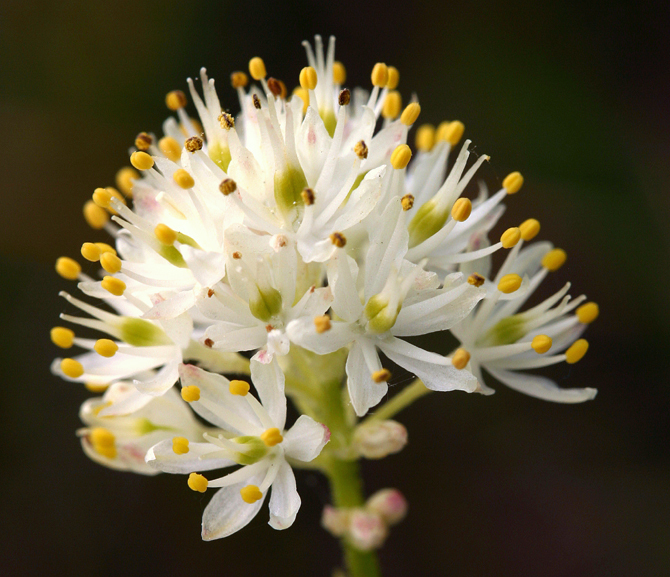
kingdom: Plantae
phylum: Tracheophyta
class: Liliopsida
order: Alismatales
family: Tofieldiaceae
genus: Triantha
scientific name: Triantha occidentalis
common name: Western false asphodel
